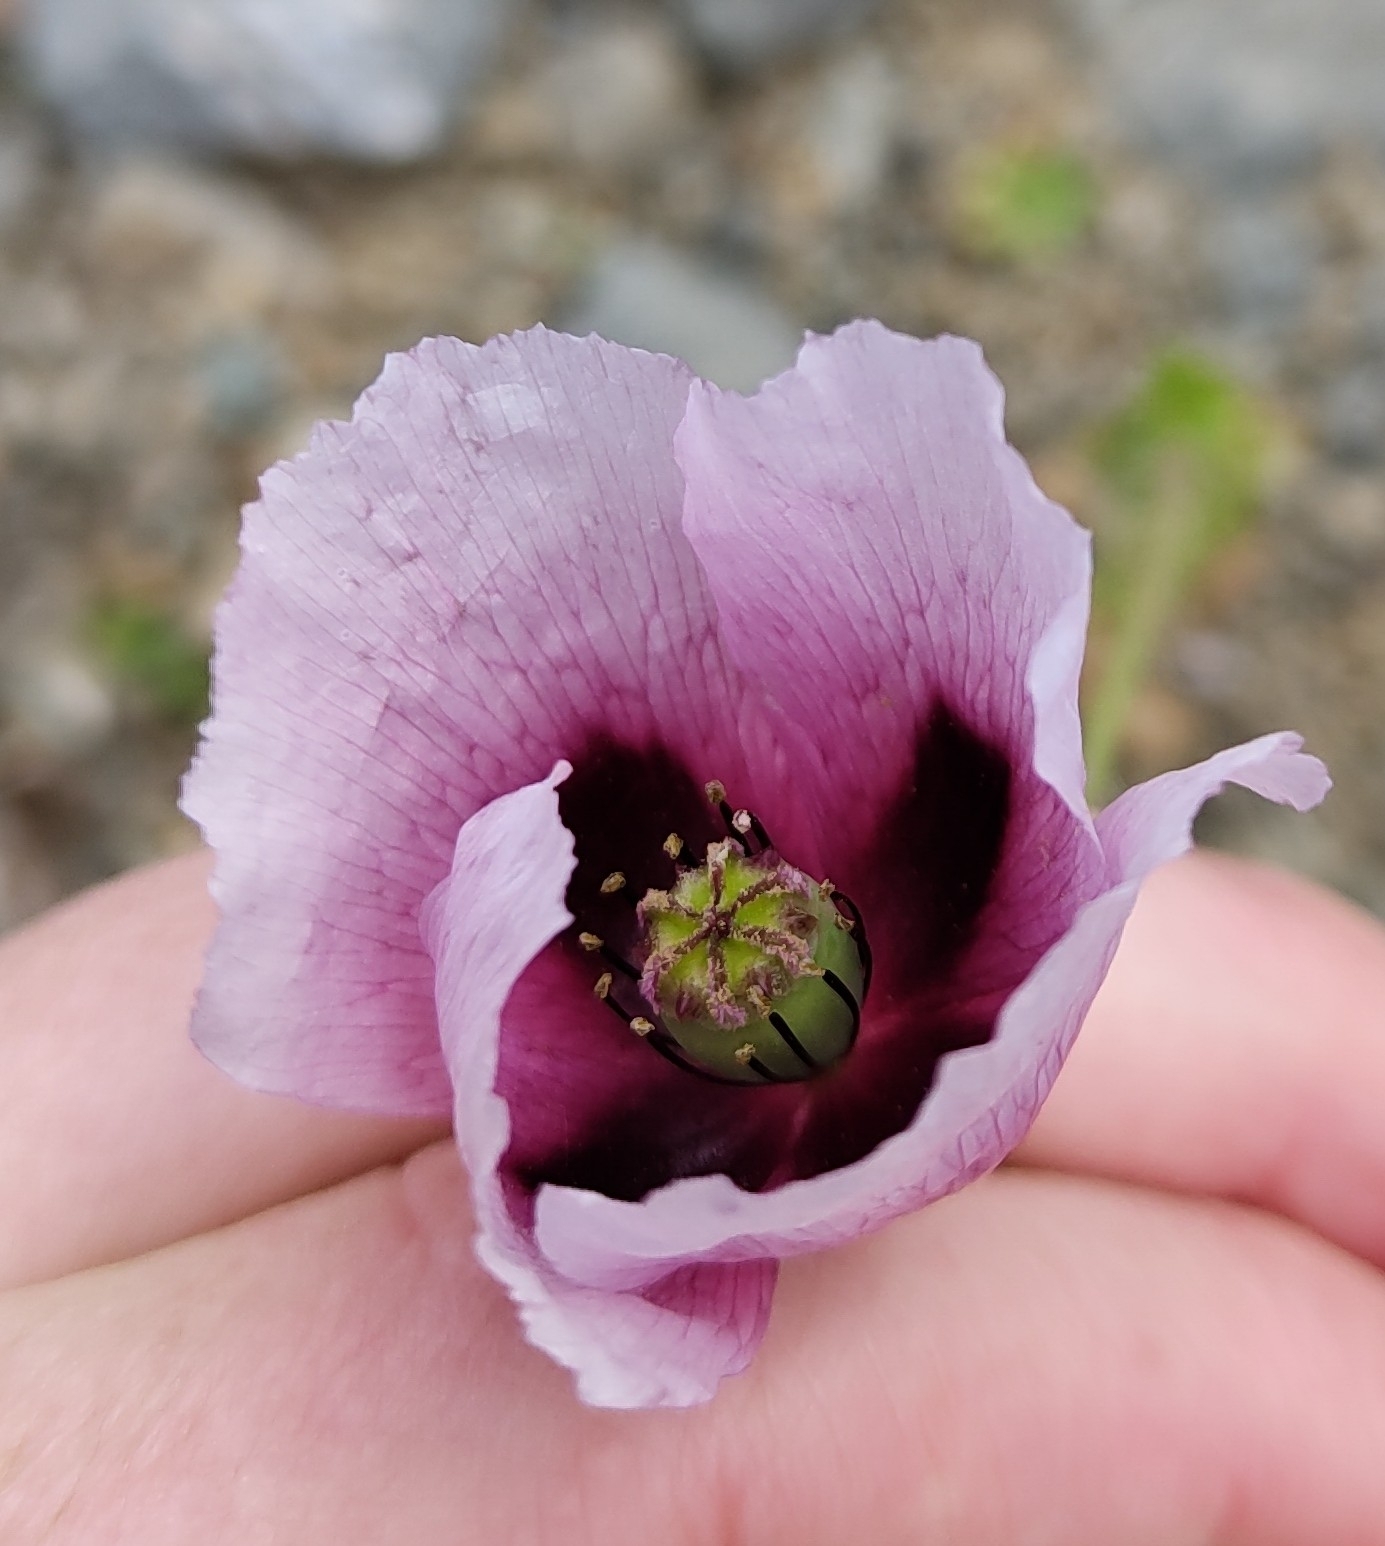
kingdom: Plantae
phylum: Tracheophyta
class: Magnoliopsida
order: Ranunculales
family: Papaveraceae
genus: Papaver
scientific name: Papaver somniferum
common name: Opium poppy
